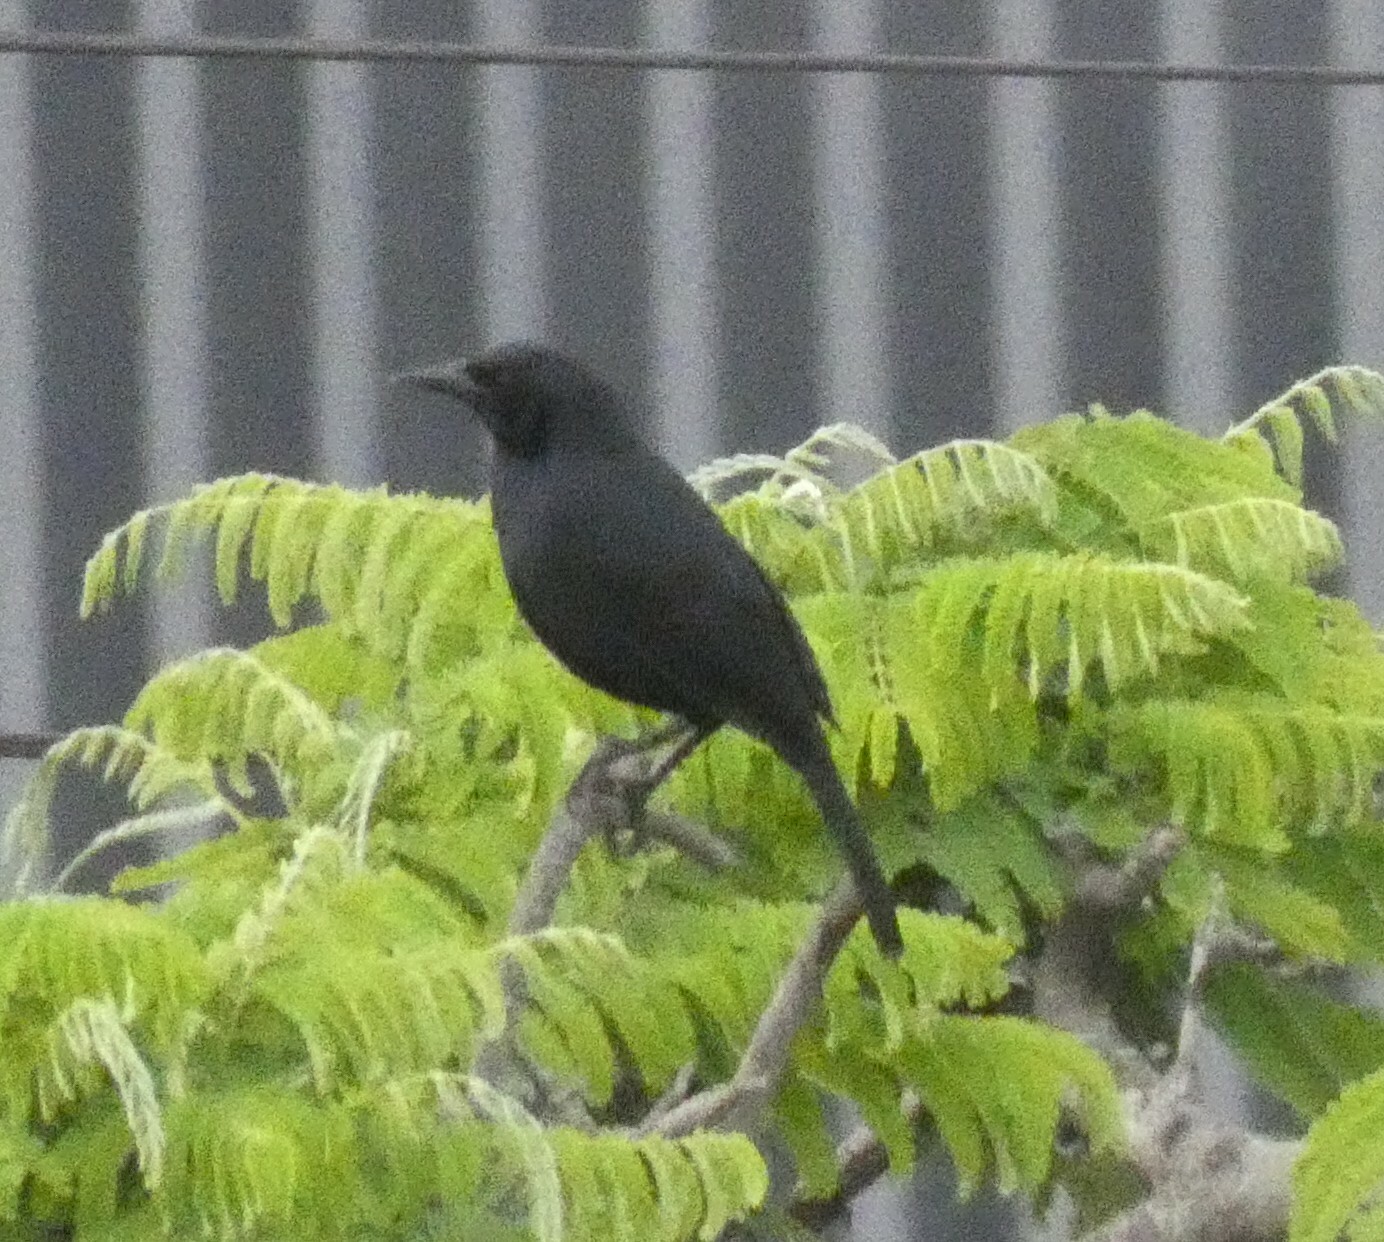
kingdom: Animalia
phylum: Chordata
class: Aves
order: Passeriformes
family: Icteridae
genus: Dives
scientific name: Dives warczewiczi
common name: Scrub blackbird
